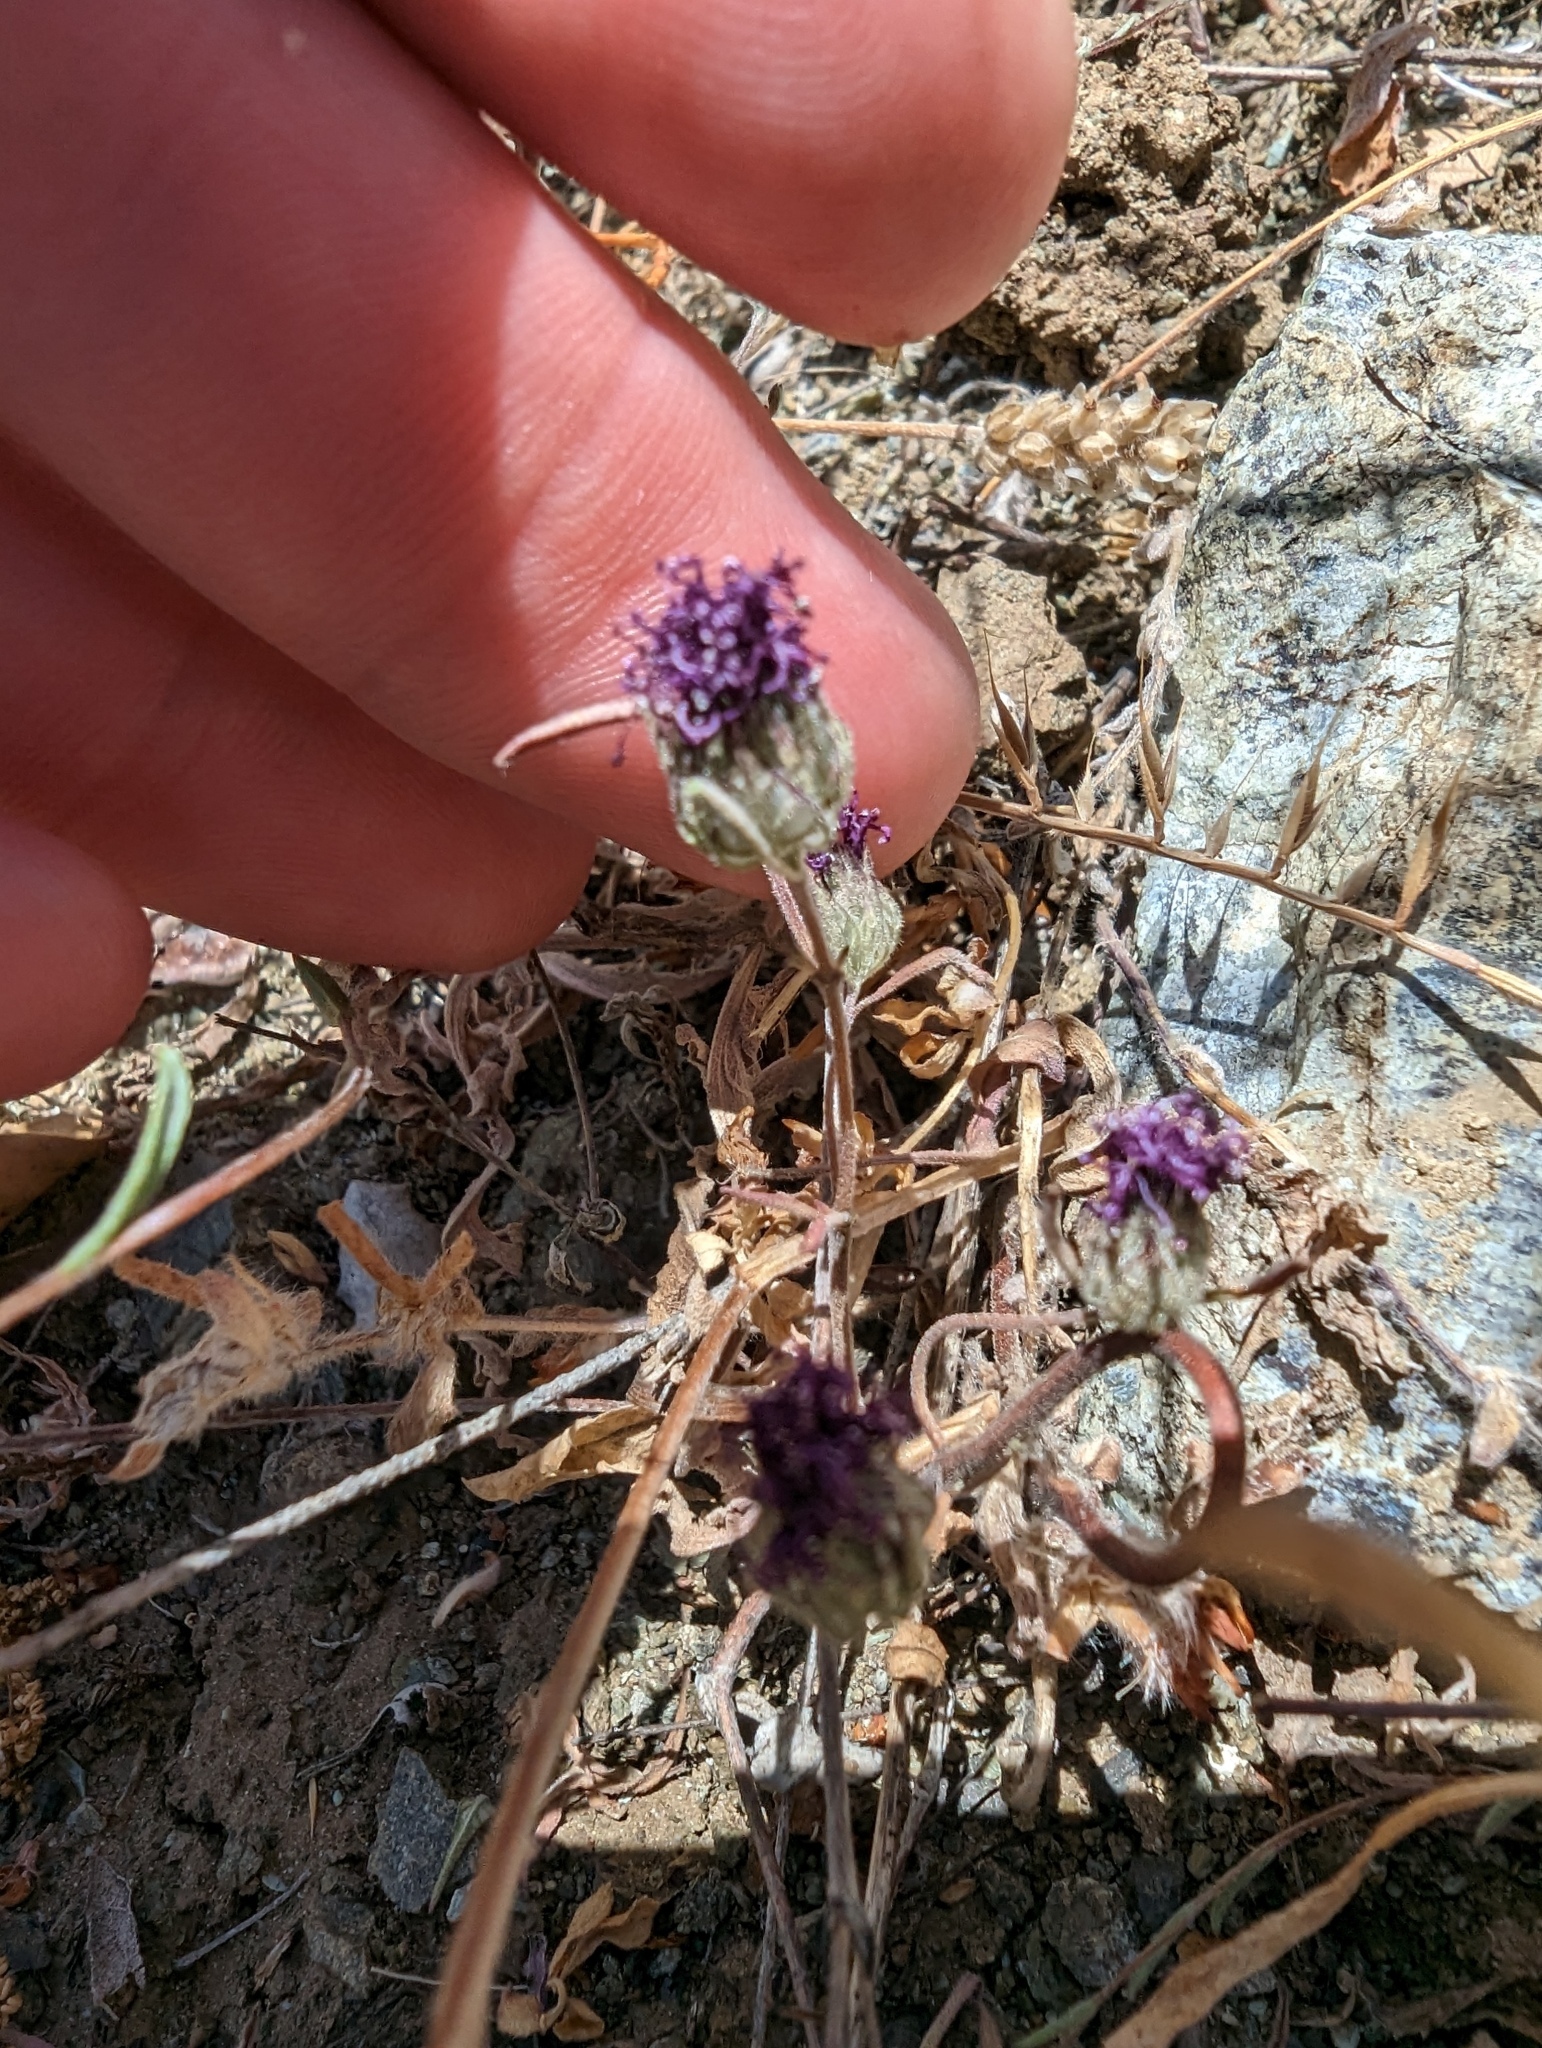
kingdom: Plantae
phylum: Tracheophyta
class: Magnoliopsida
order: Lamiales
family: Lamiaceae
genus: Monardella
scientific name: Monardella douglasii
